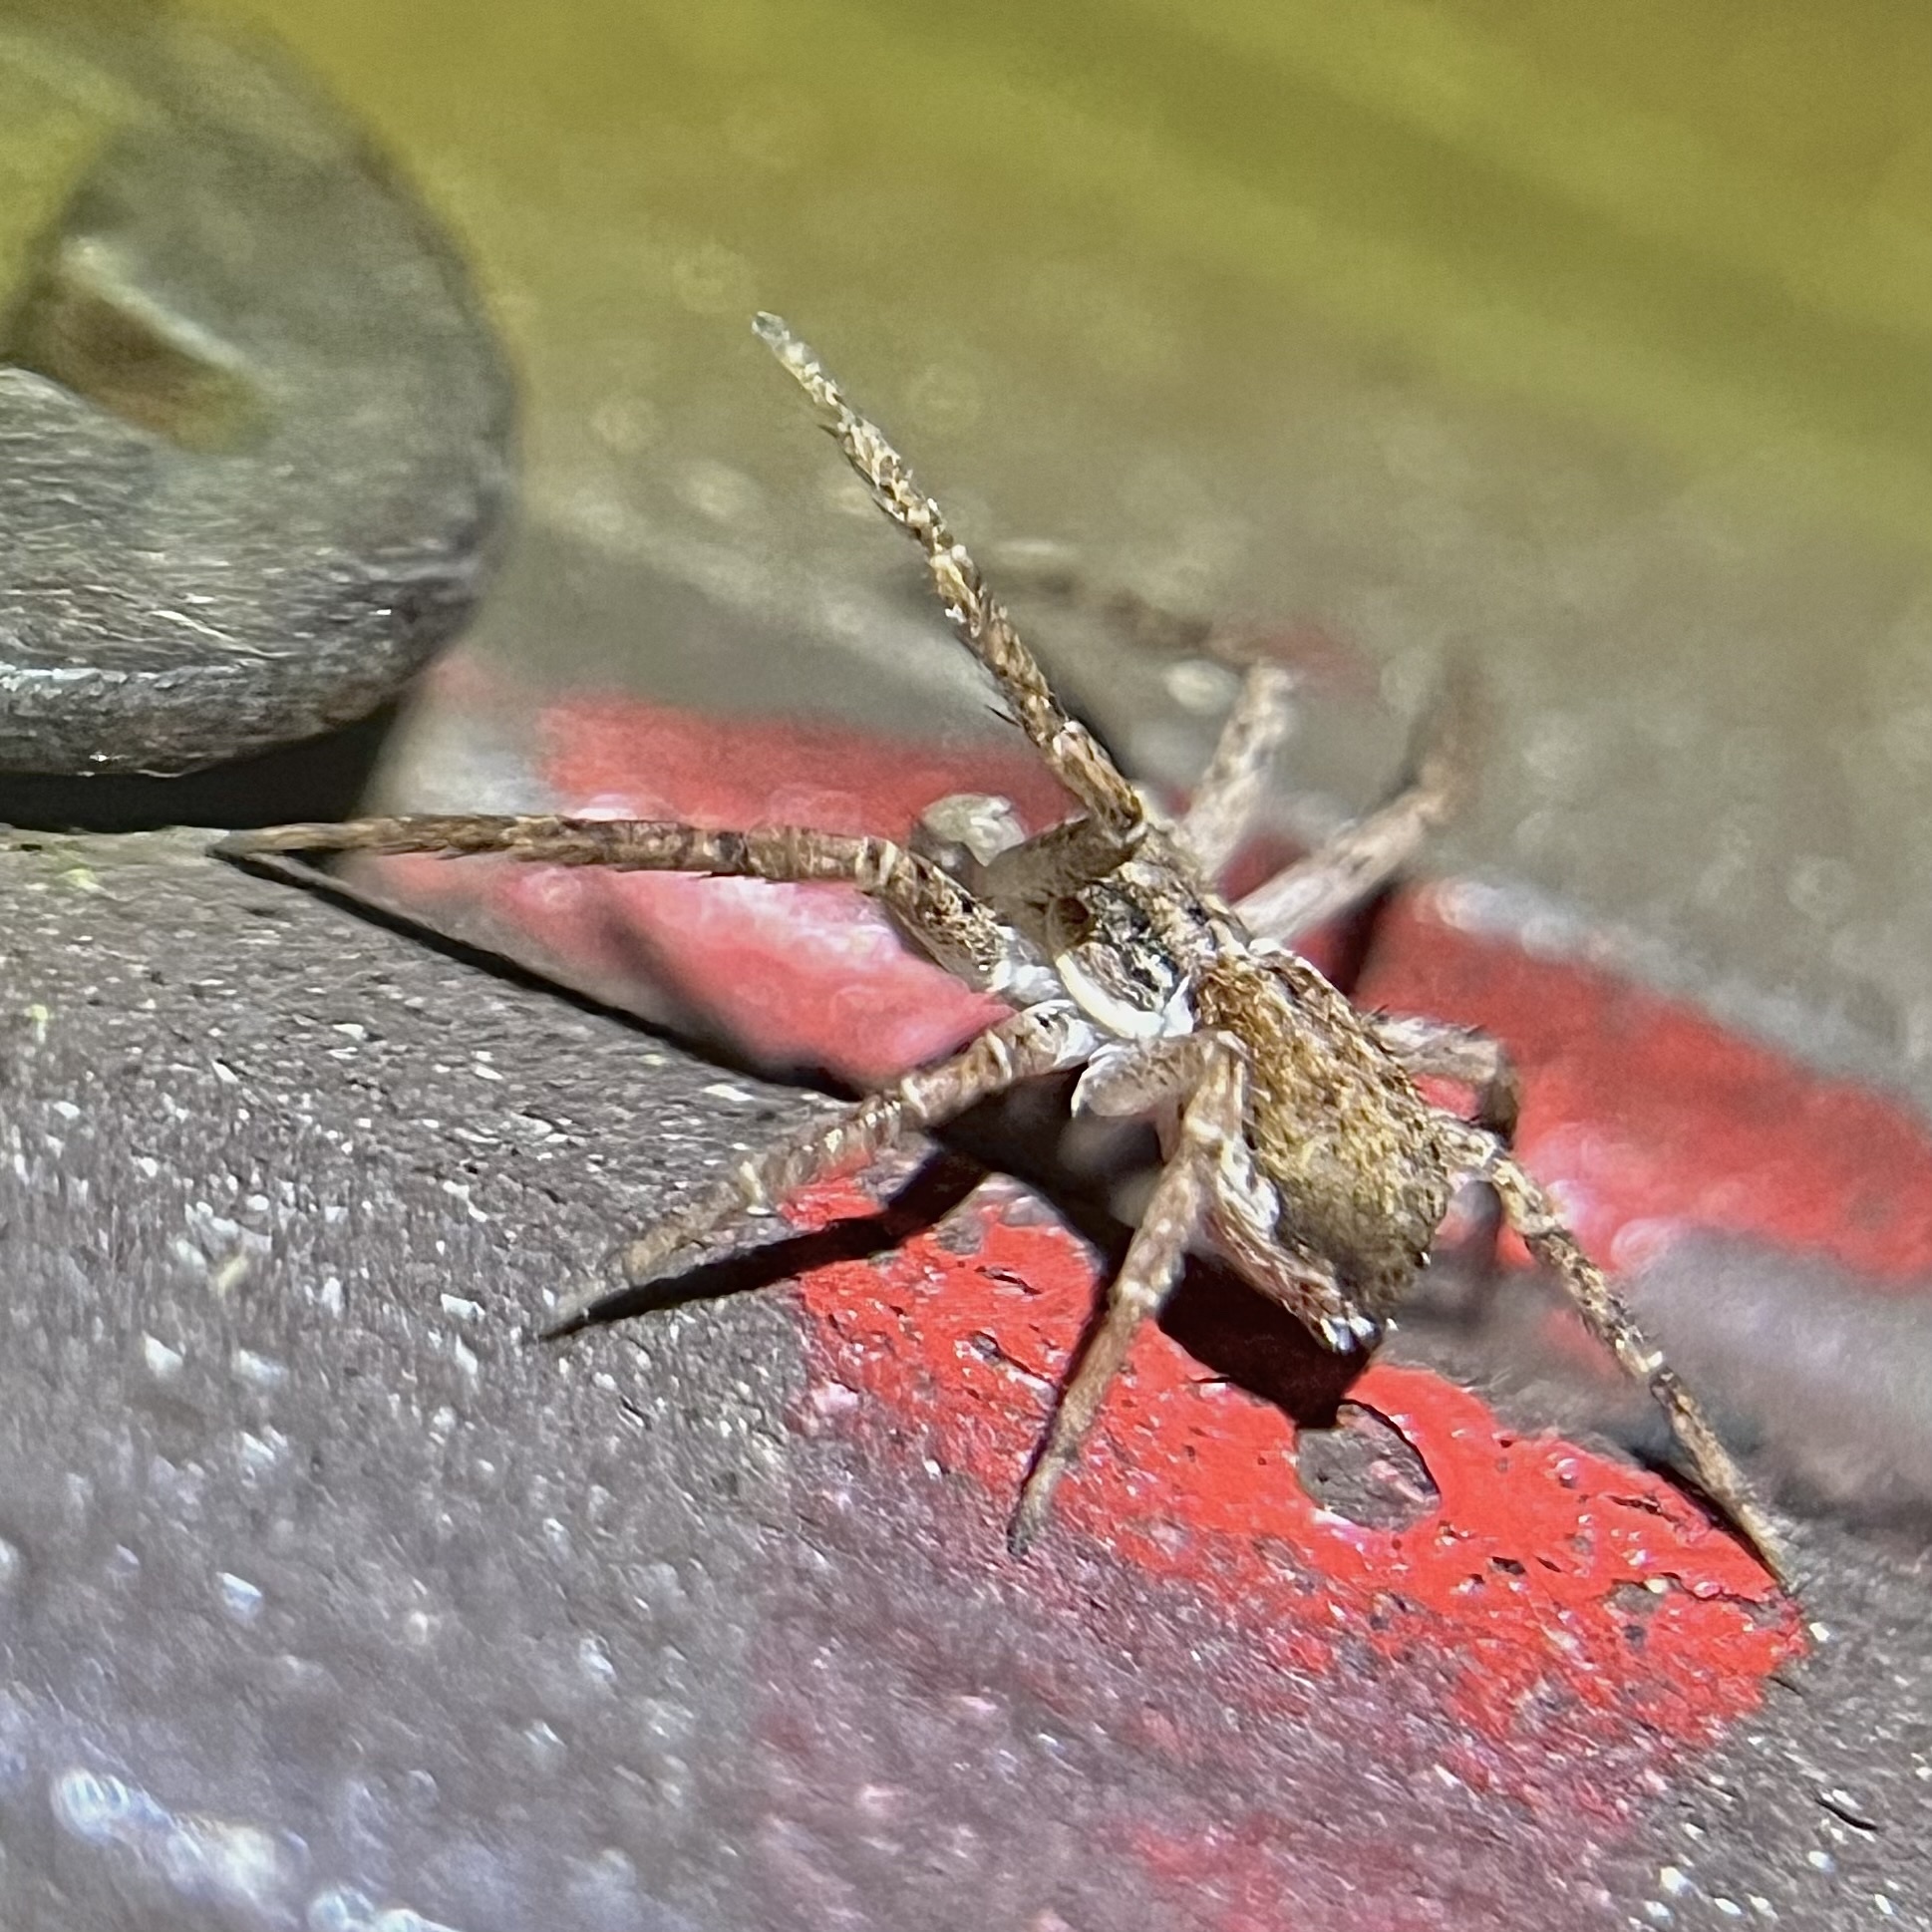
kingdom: Animalia
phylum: Arthropoda
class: Arachnida
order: Araneae
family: Philodromidae
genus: Philodromus
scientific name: Philodromus dispar
